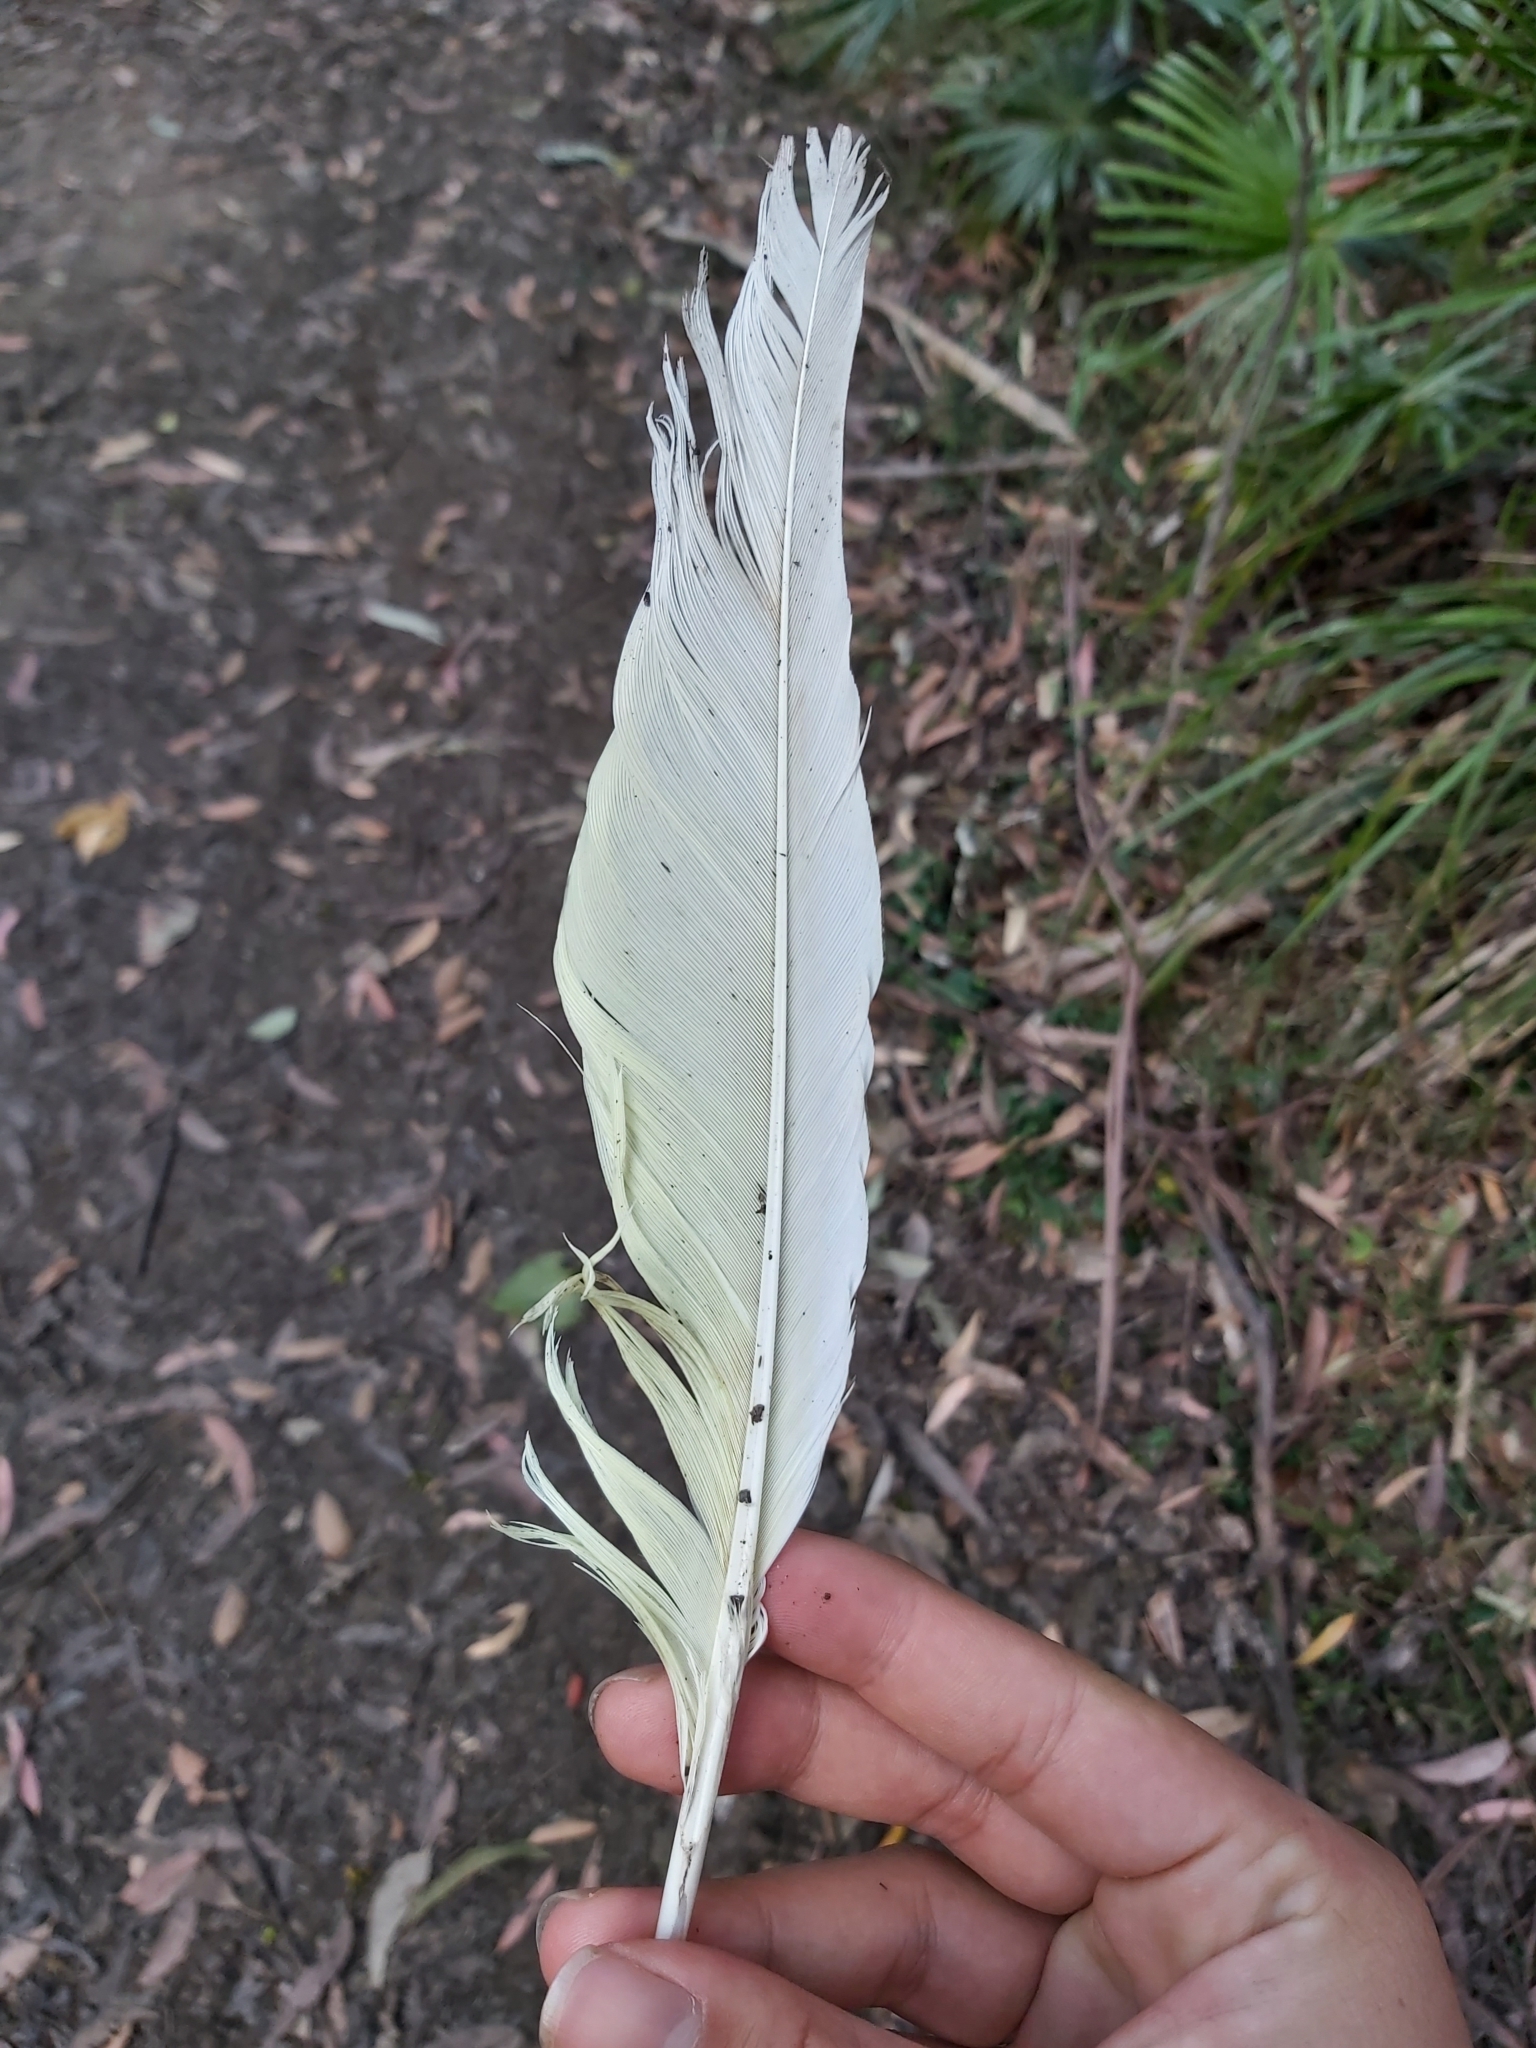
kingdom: Animalia
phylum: Chordata
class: Aves
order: Psittaciformes
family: Psittacidae
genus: Cacatua
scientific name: Cacatua galerita
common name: Sulphur-crested cockatoo
